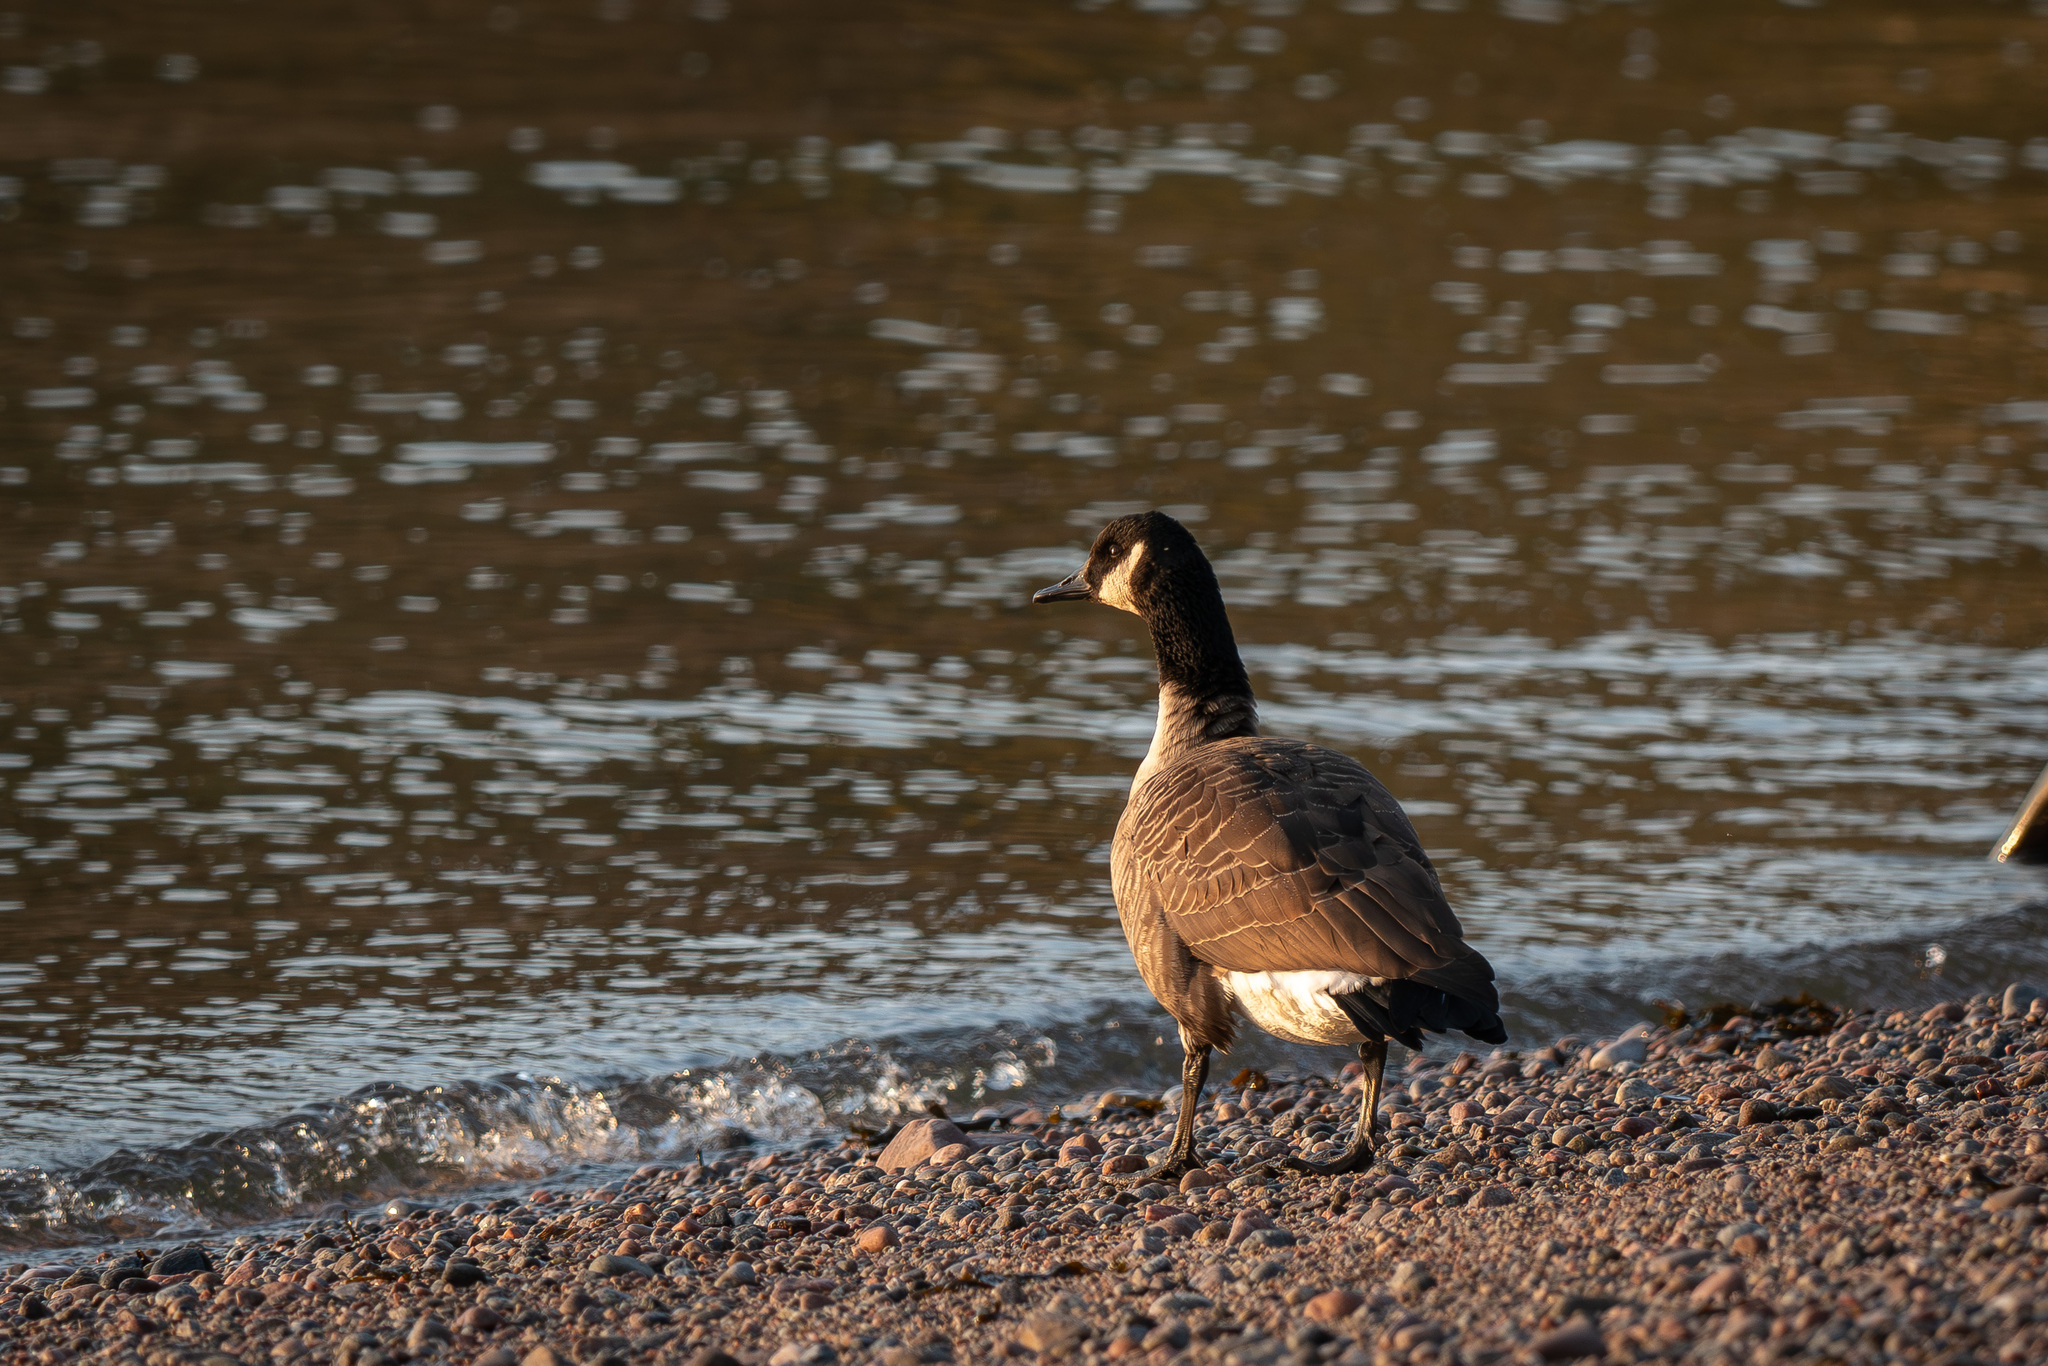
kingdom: Animalia
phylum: Chordata
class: Aves
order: Anseriformes
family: Anatidae
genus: Branta
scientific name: Branta canadensis
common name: Canada goose
